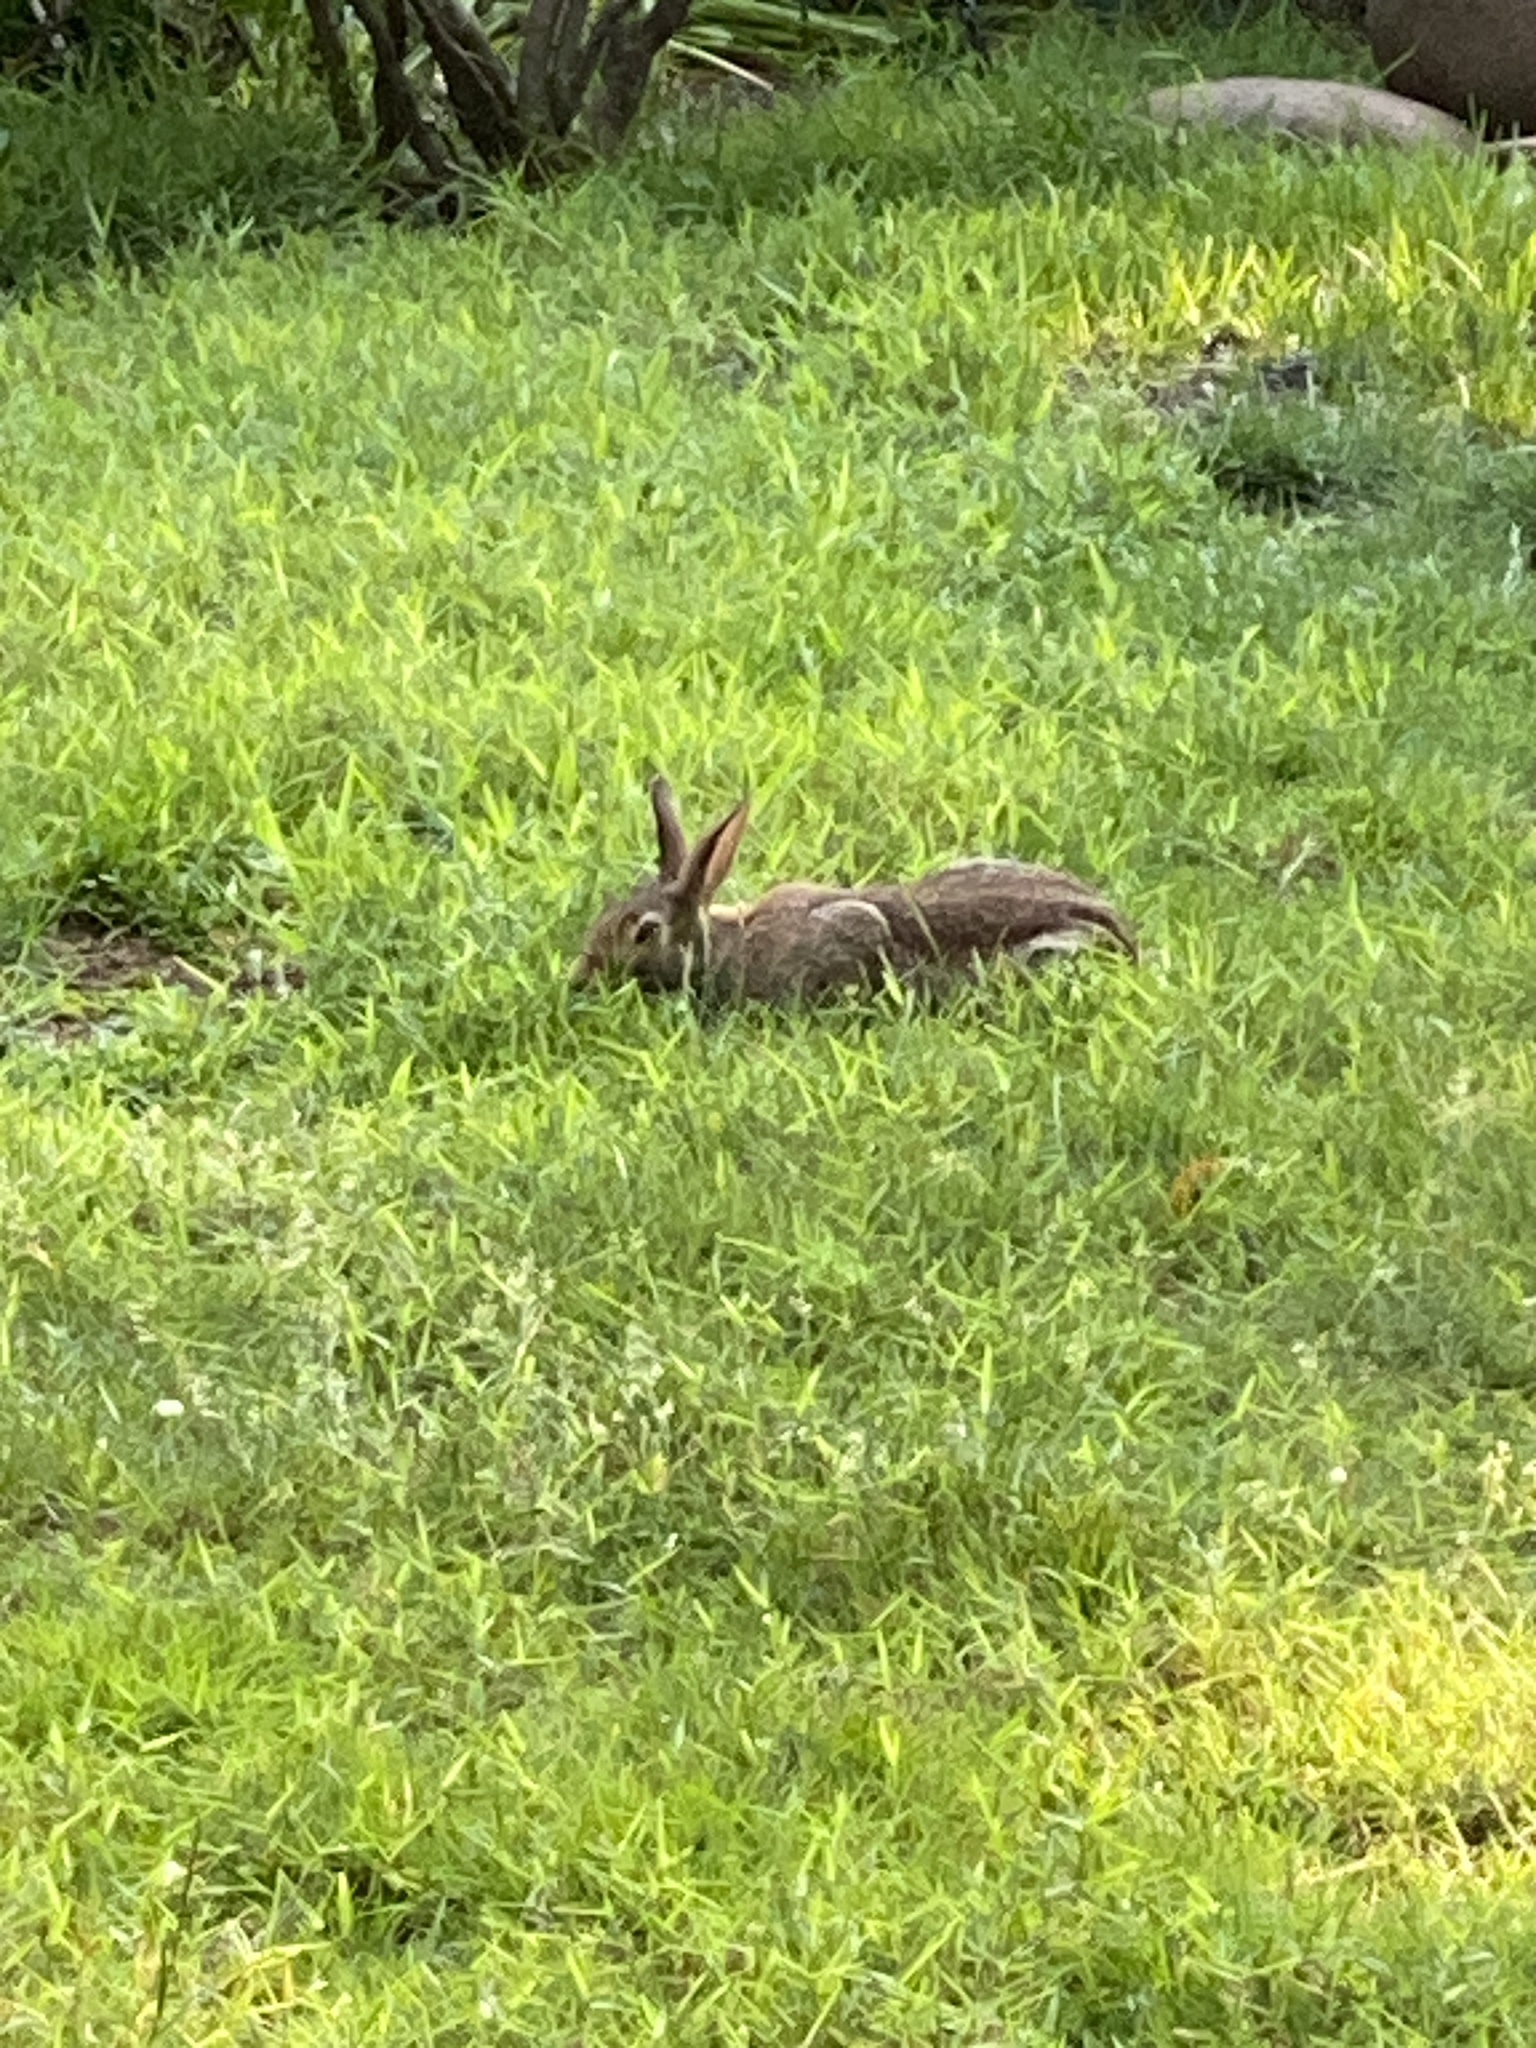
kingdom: Animalia
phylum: Chordata
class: Mammalia
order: Lagomorpha
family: Leporidae
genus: Sylvilagus
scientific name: Sylvilagus floridanus
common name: Eastern cottontail
